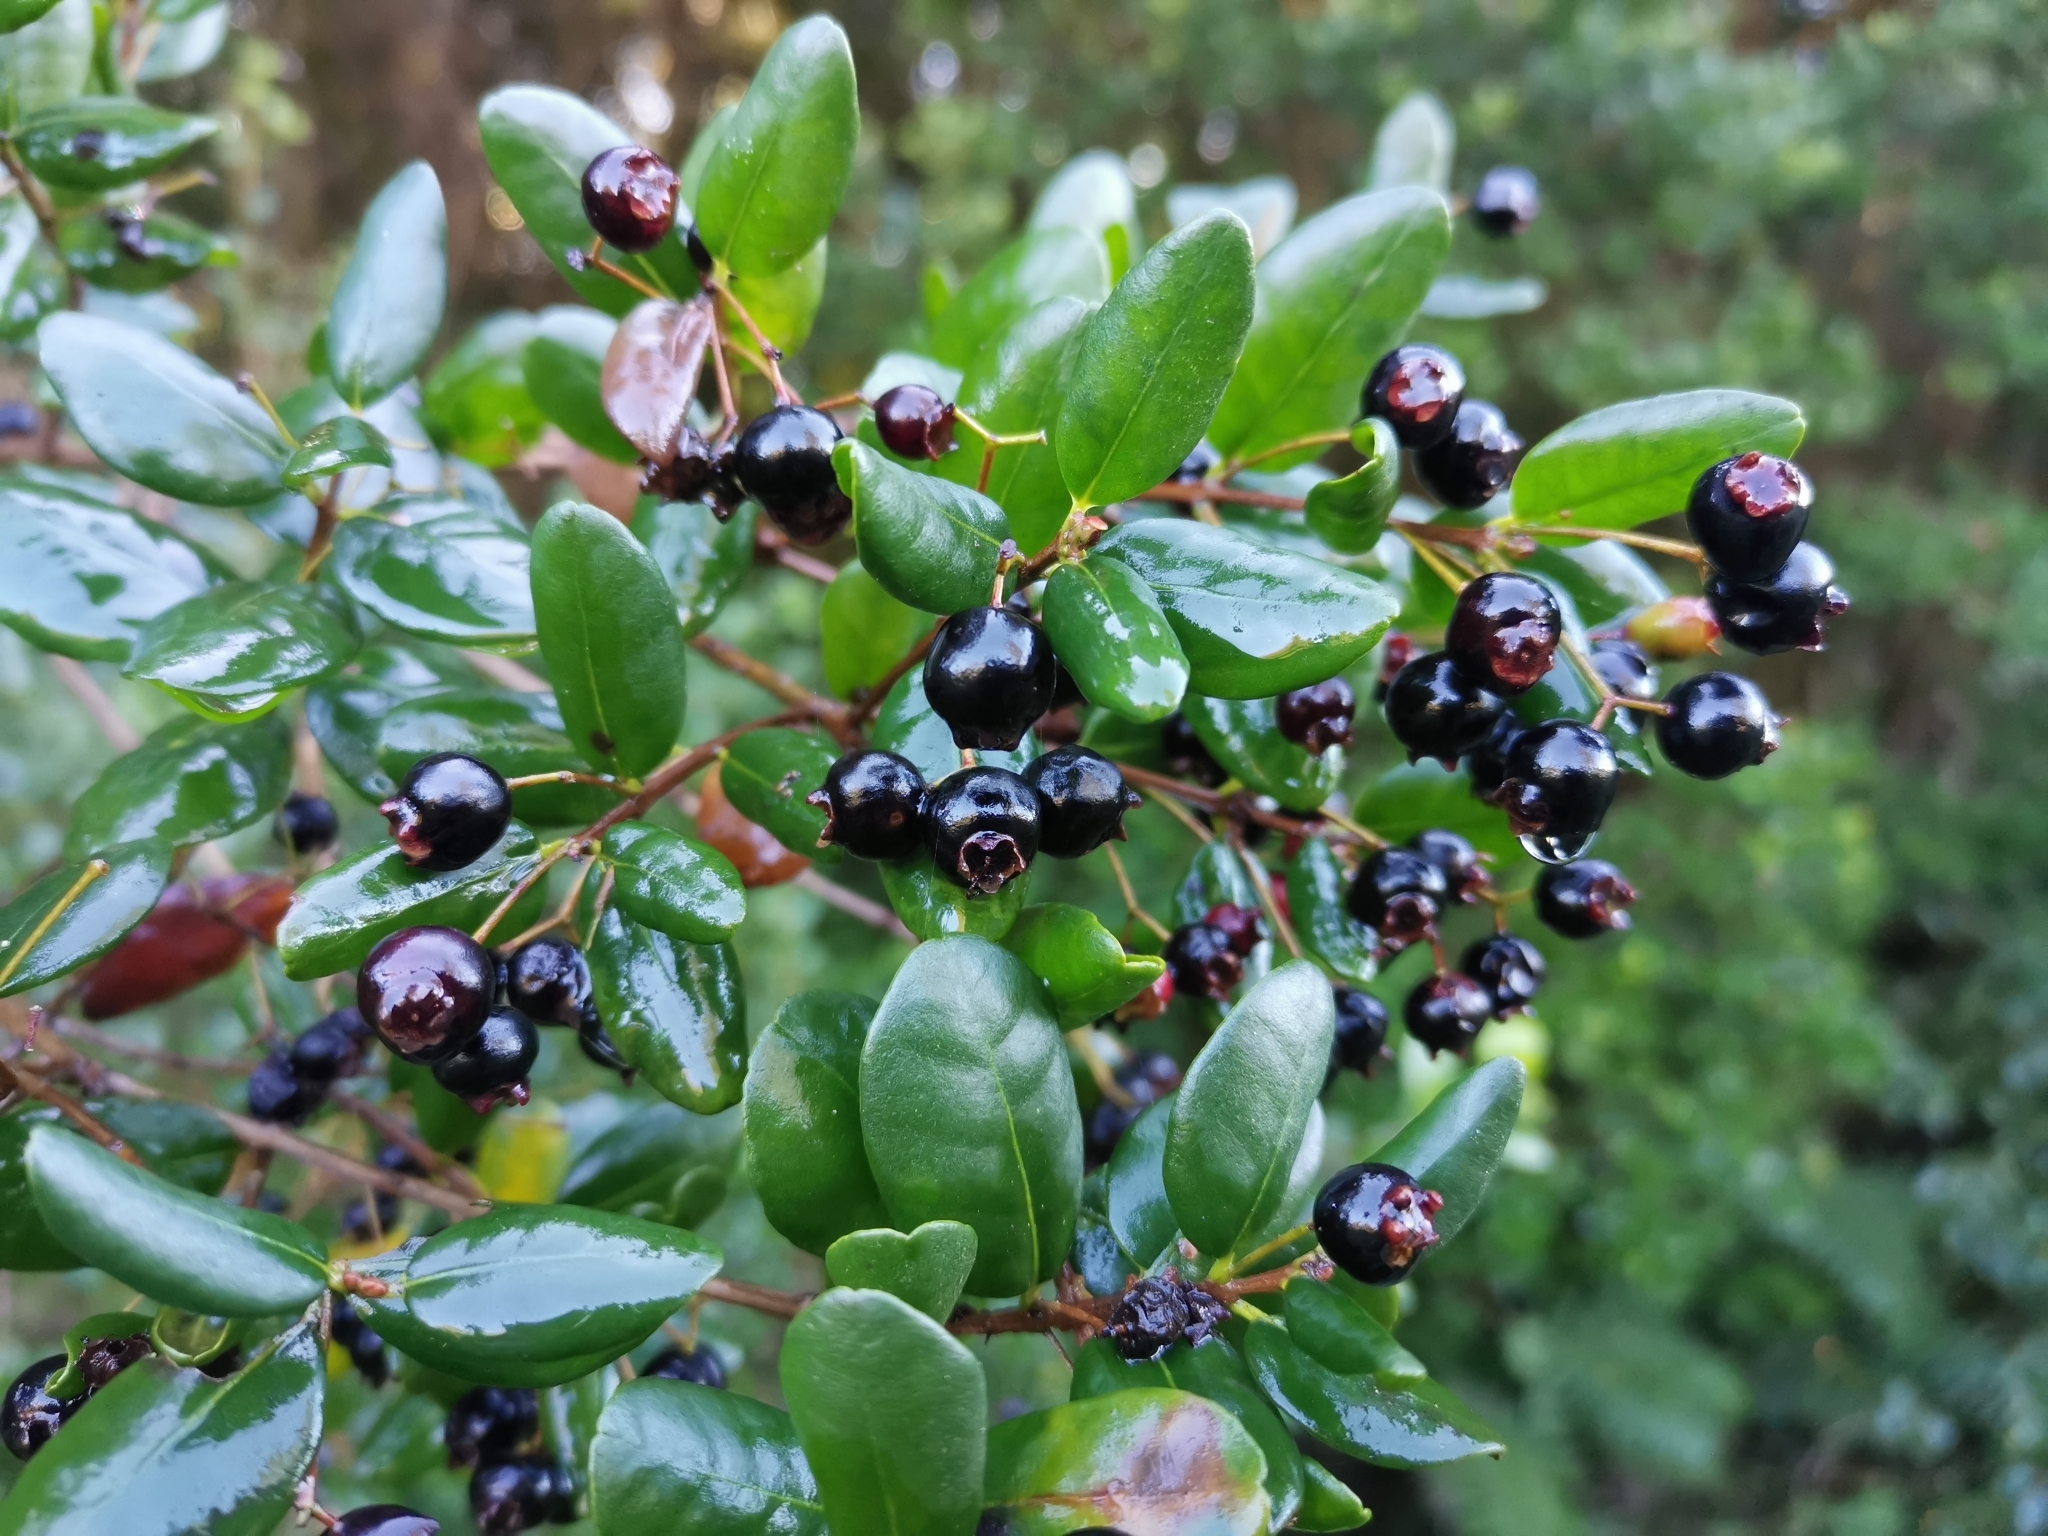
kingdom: Plantae
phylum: Tracheophyta
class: Magnoliopsida
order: Myrtales
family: Myrtaceae
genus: Blepharocalyx
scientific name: Blepharocalyx cruckshanksii
